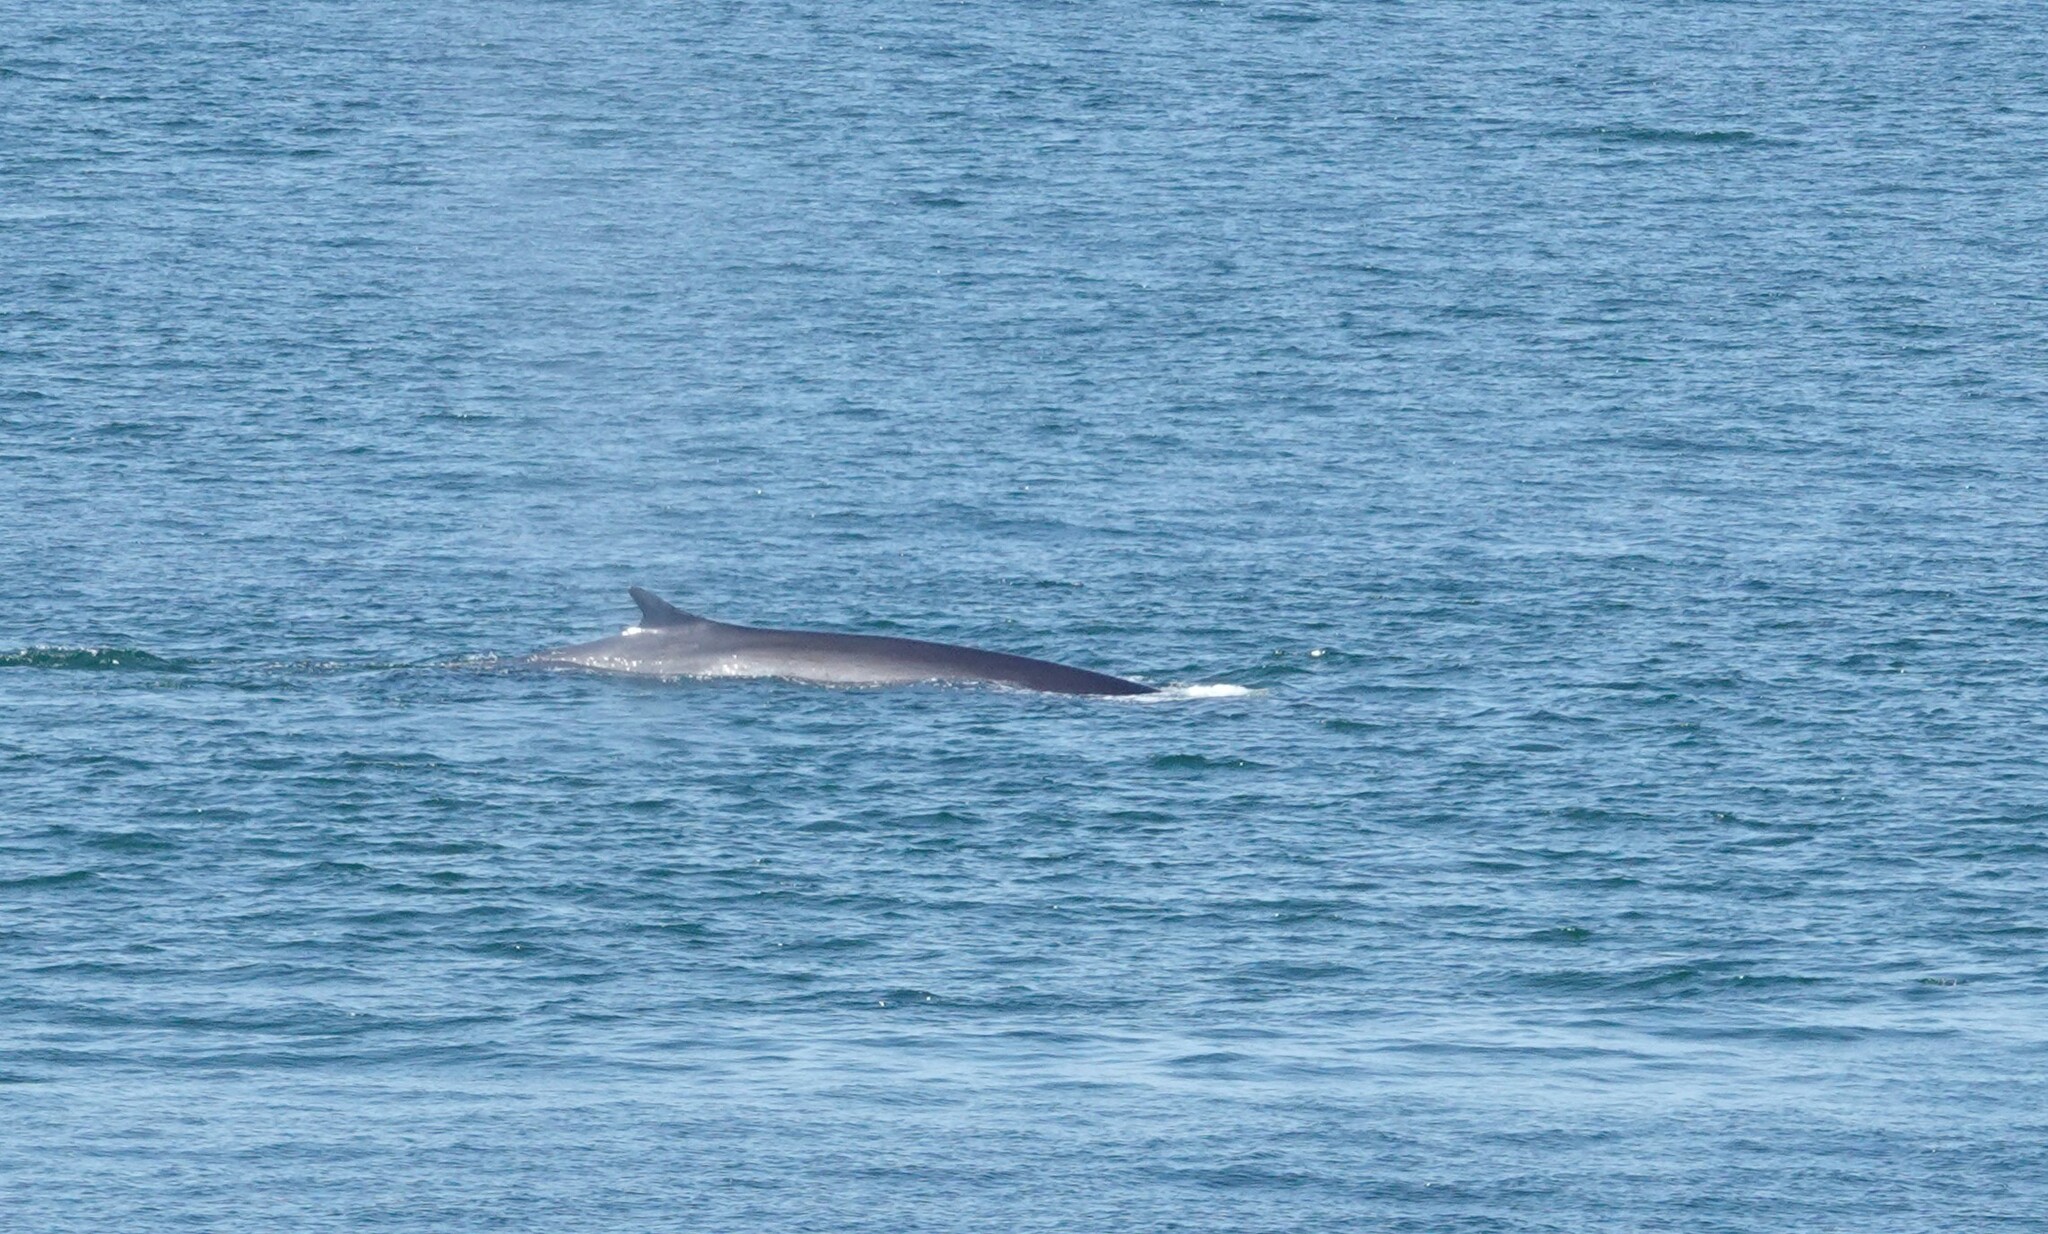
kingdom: Animalia
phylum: Chordata
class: Mammalia
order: Cetacea
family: Balaenopteridae
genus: Balaenoptera
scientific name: Balaenoptera physalus
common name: Fin whale
